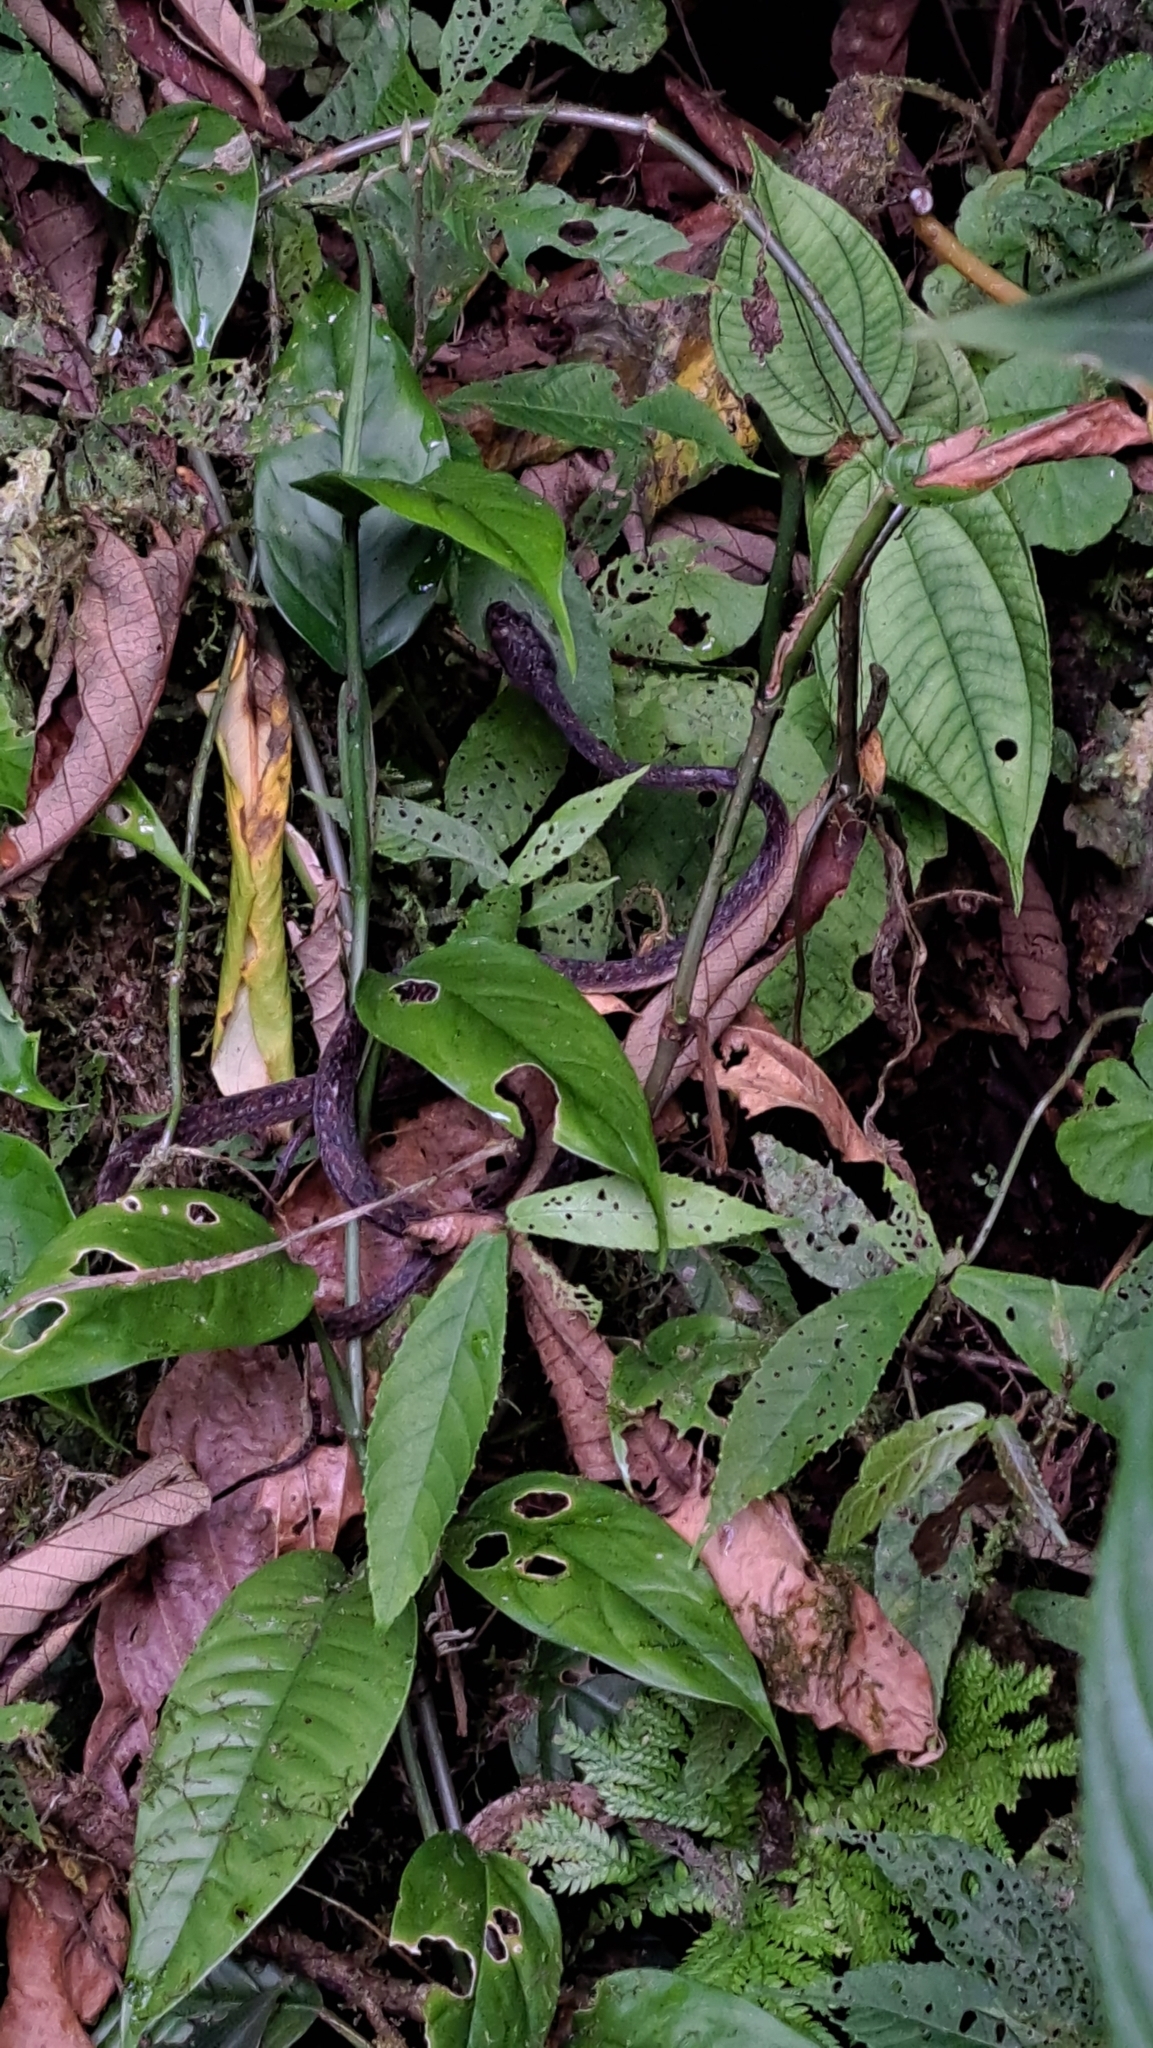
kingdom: Animalia
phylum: Chordata
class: Squamata
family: Colubridae
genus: Leptodeira
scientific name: Leptodeira ornata
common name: Northern cat-eyed snake
